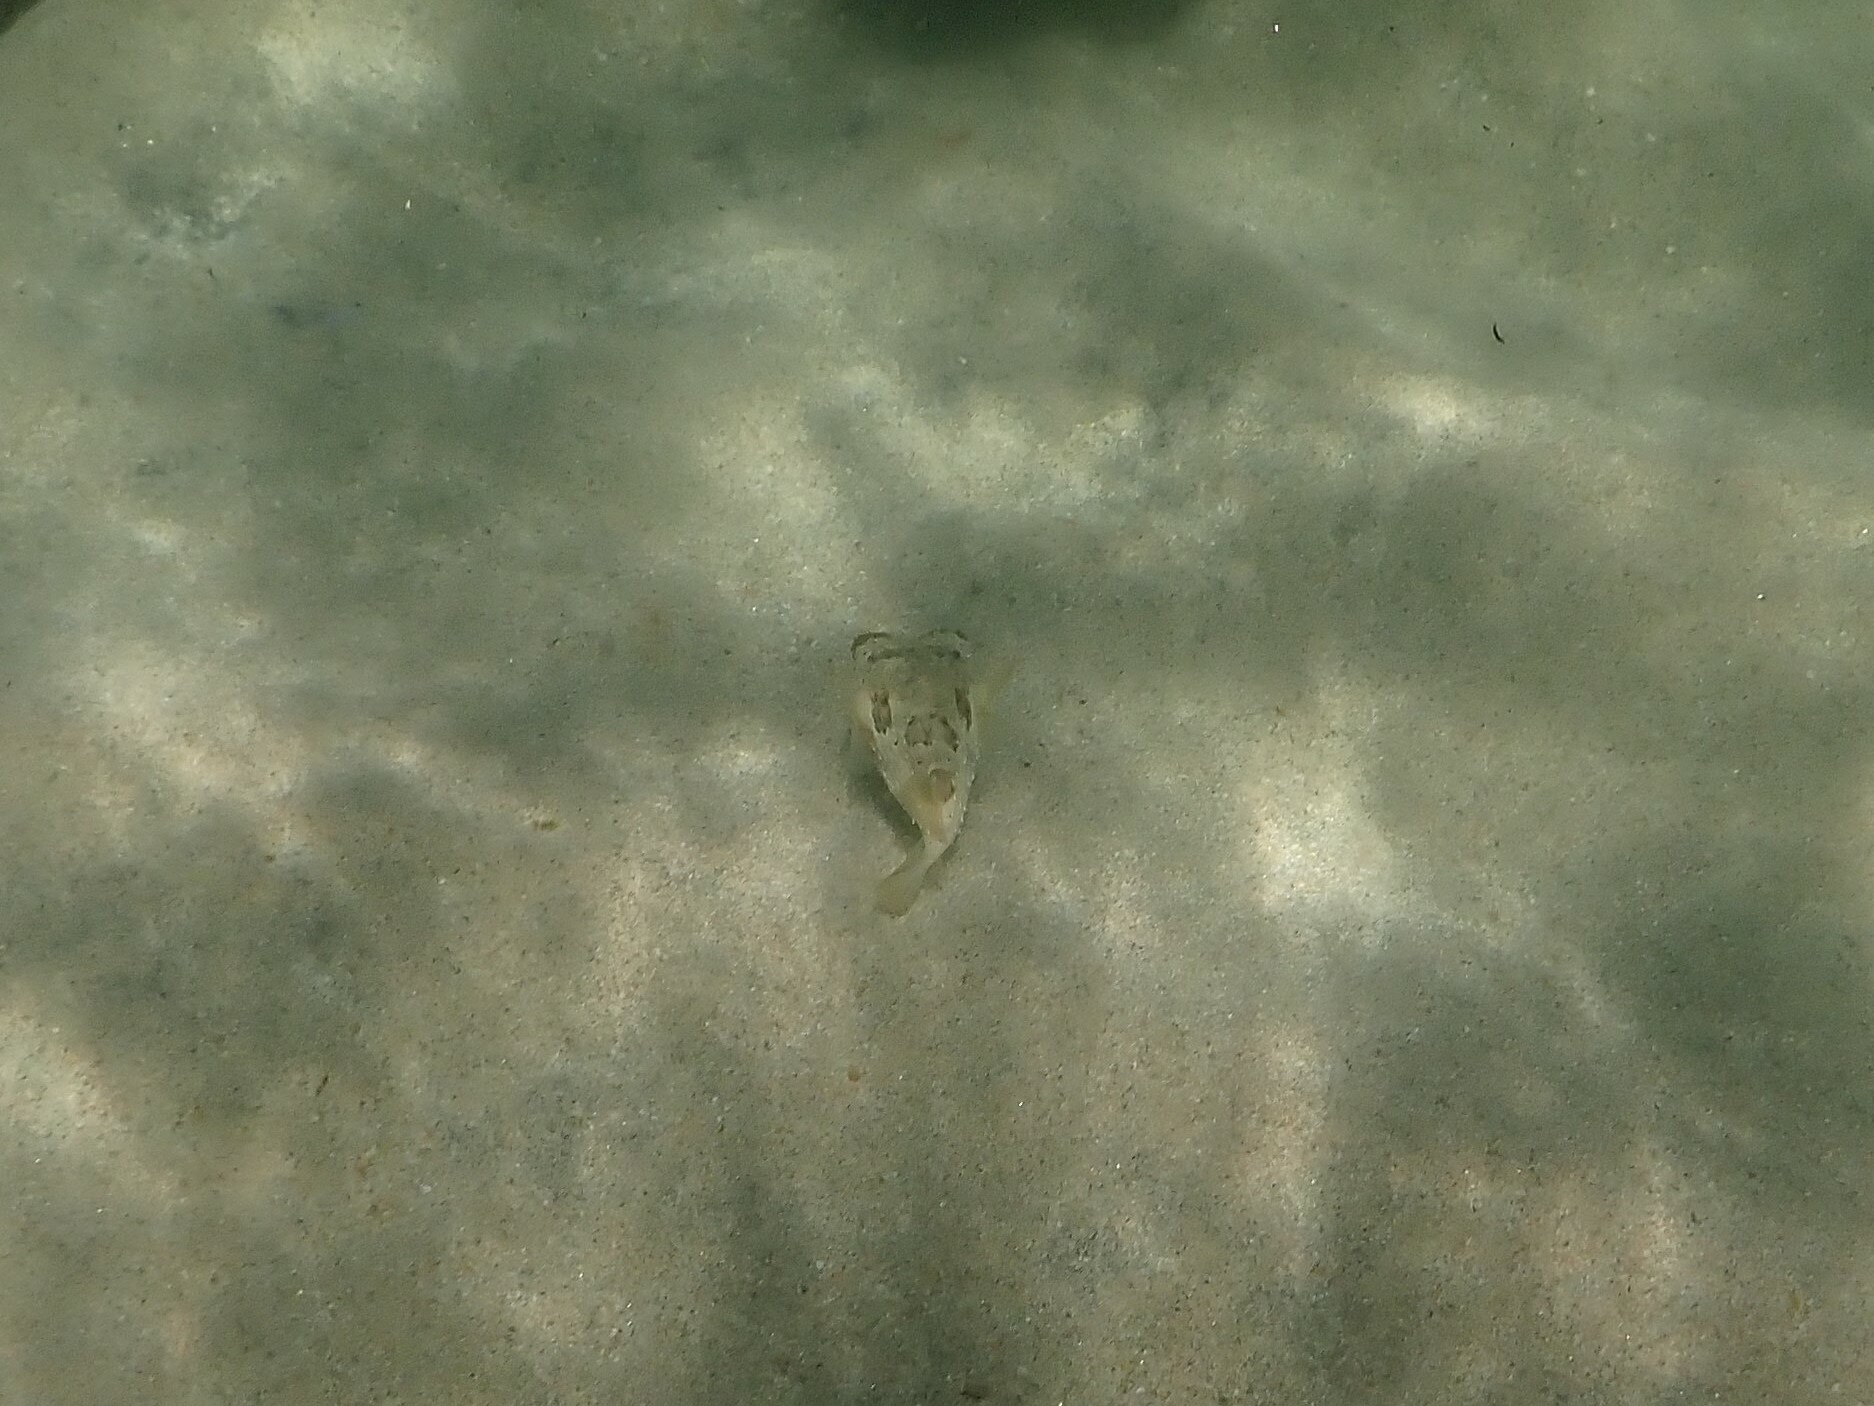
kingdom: Animalia
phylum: Chordata
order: Tetraodontiformes
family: Diodontidae
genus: Diodon
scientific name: Diodon holocanthus
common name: Balloonfish
